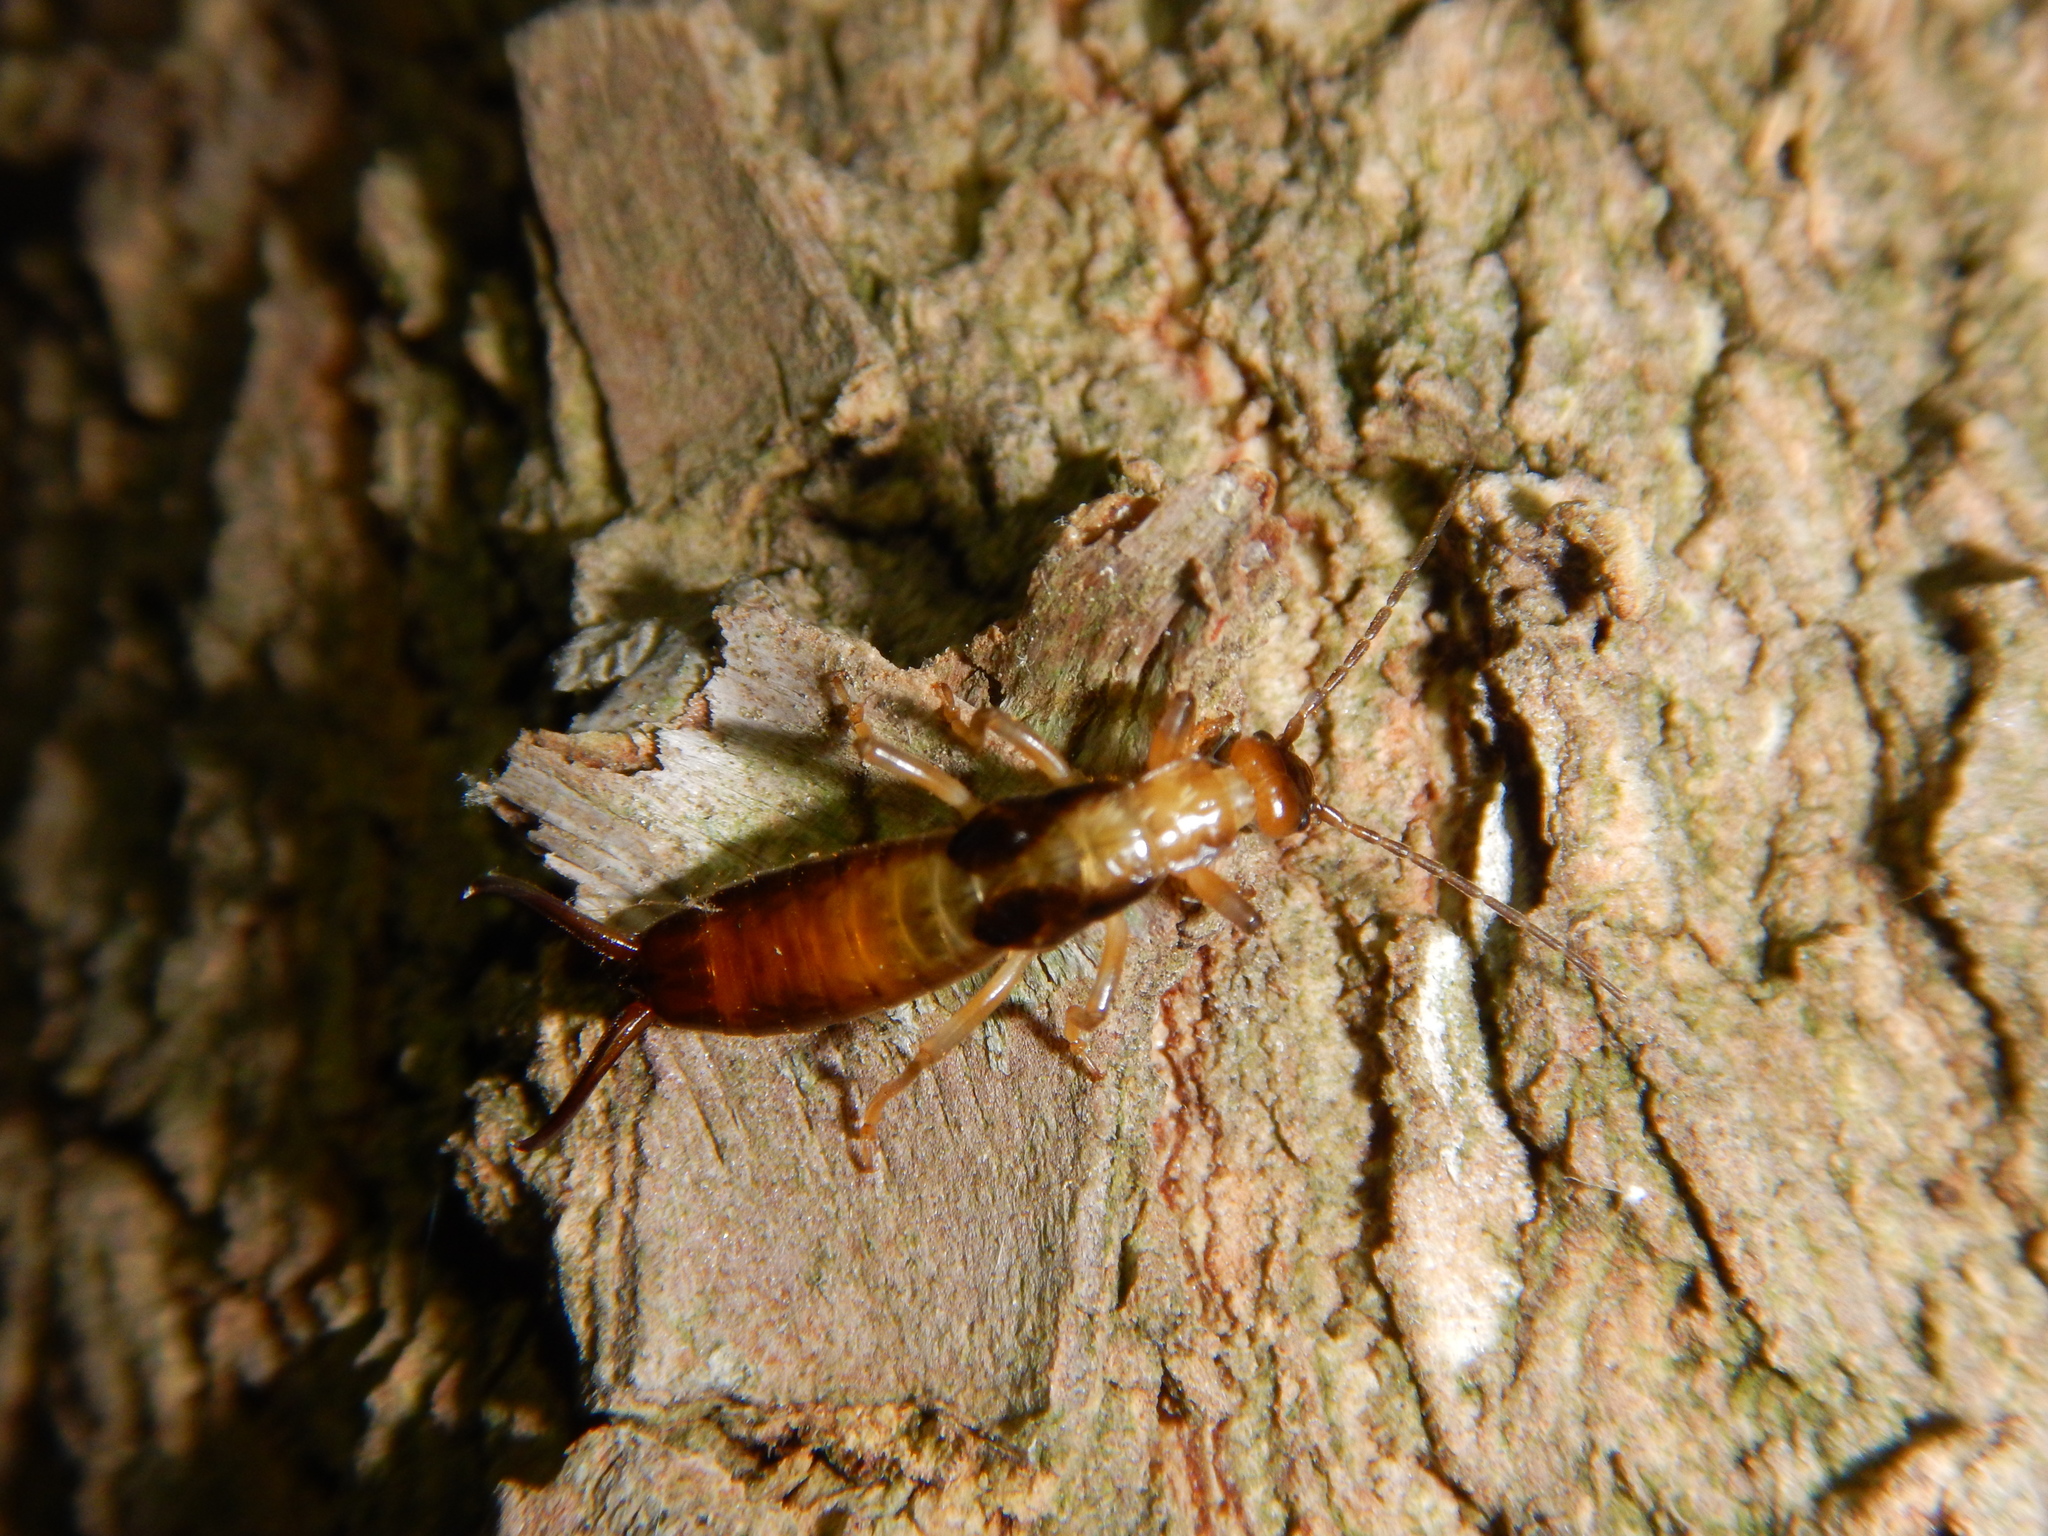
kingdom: Animalia
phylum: Arthropoda
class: Insecta
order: Dermaptera
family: Forficulidae
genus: Forficula
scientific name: Forficula smyrnensis
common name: Smyrna earwig
